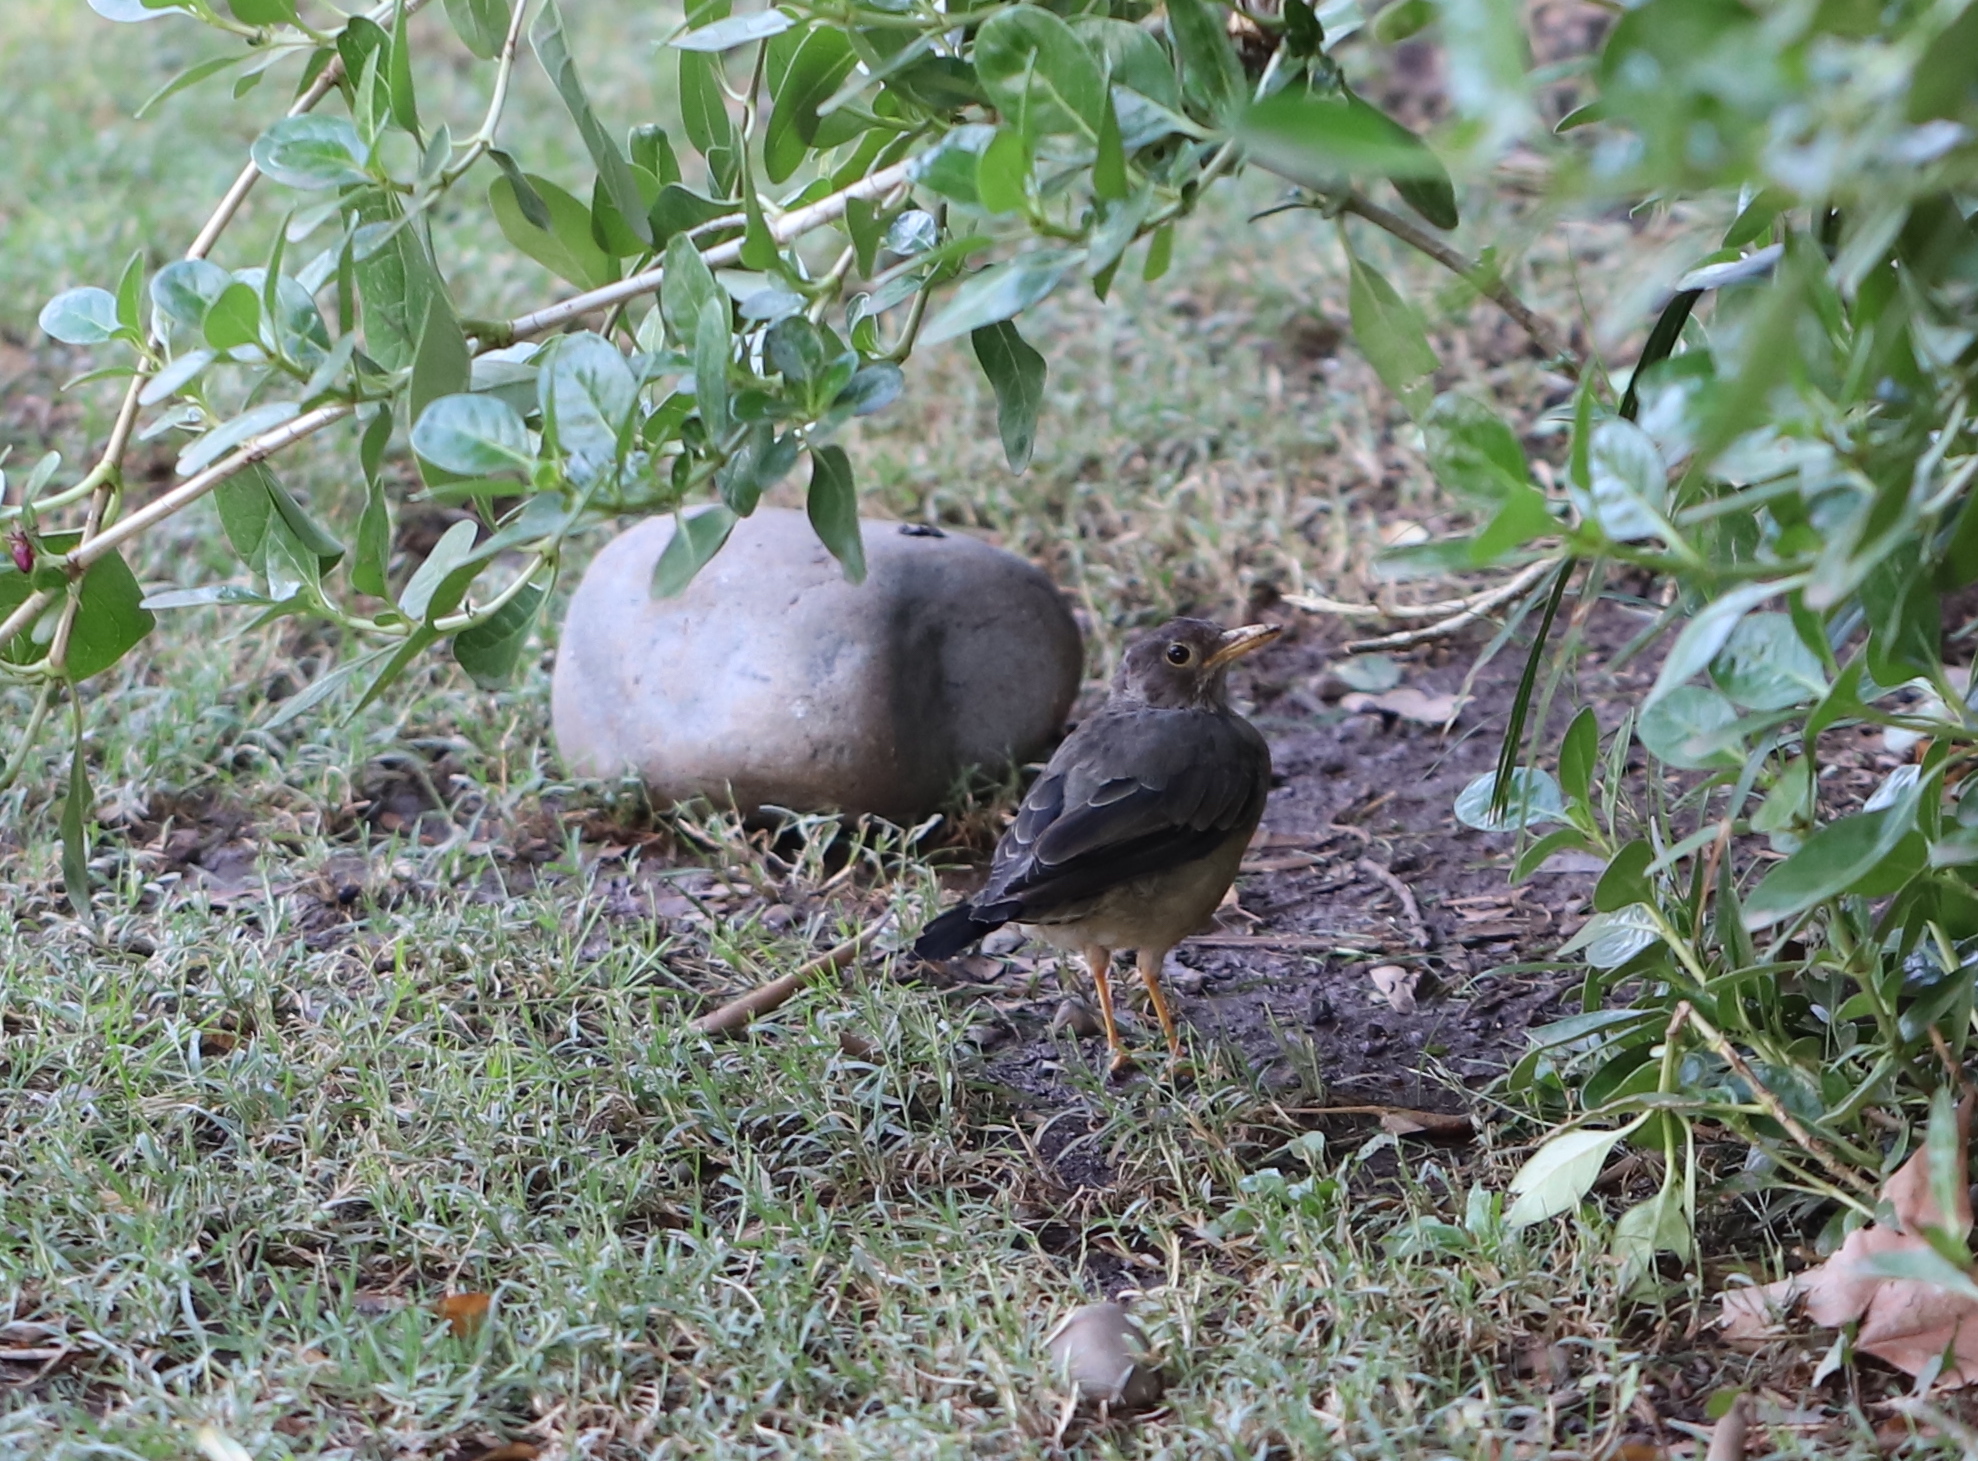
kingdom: Animalia
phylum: Chordata
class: Aves
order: Passeriformes
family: Turdidae
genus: Turdus
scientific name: Turdus falcklandii
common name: Austral thrush
